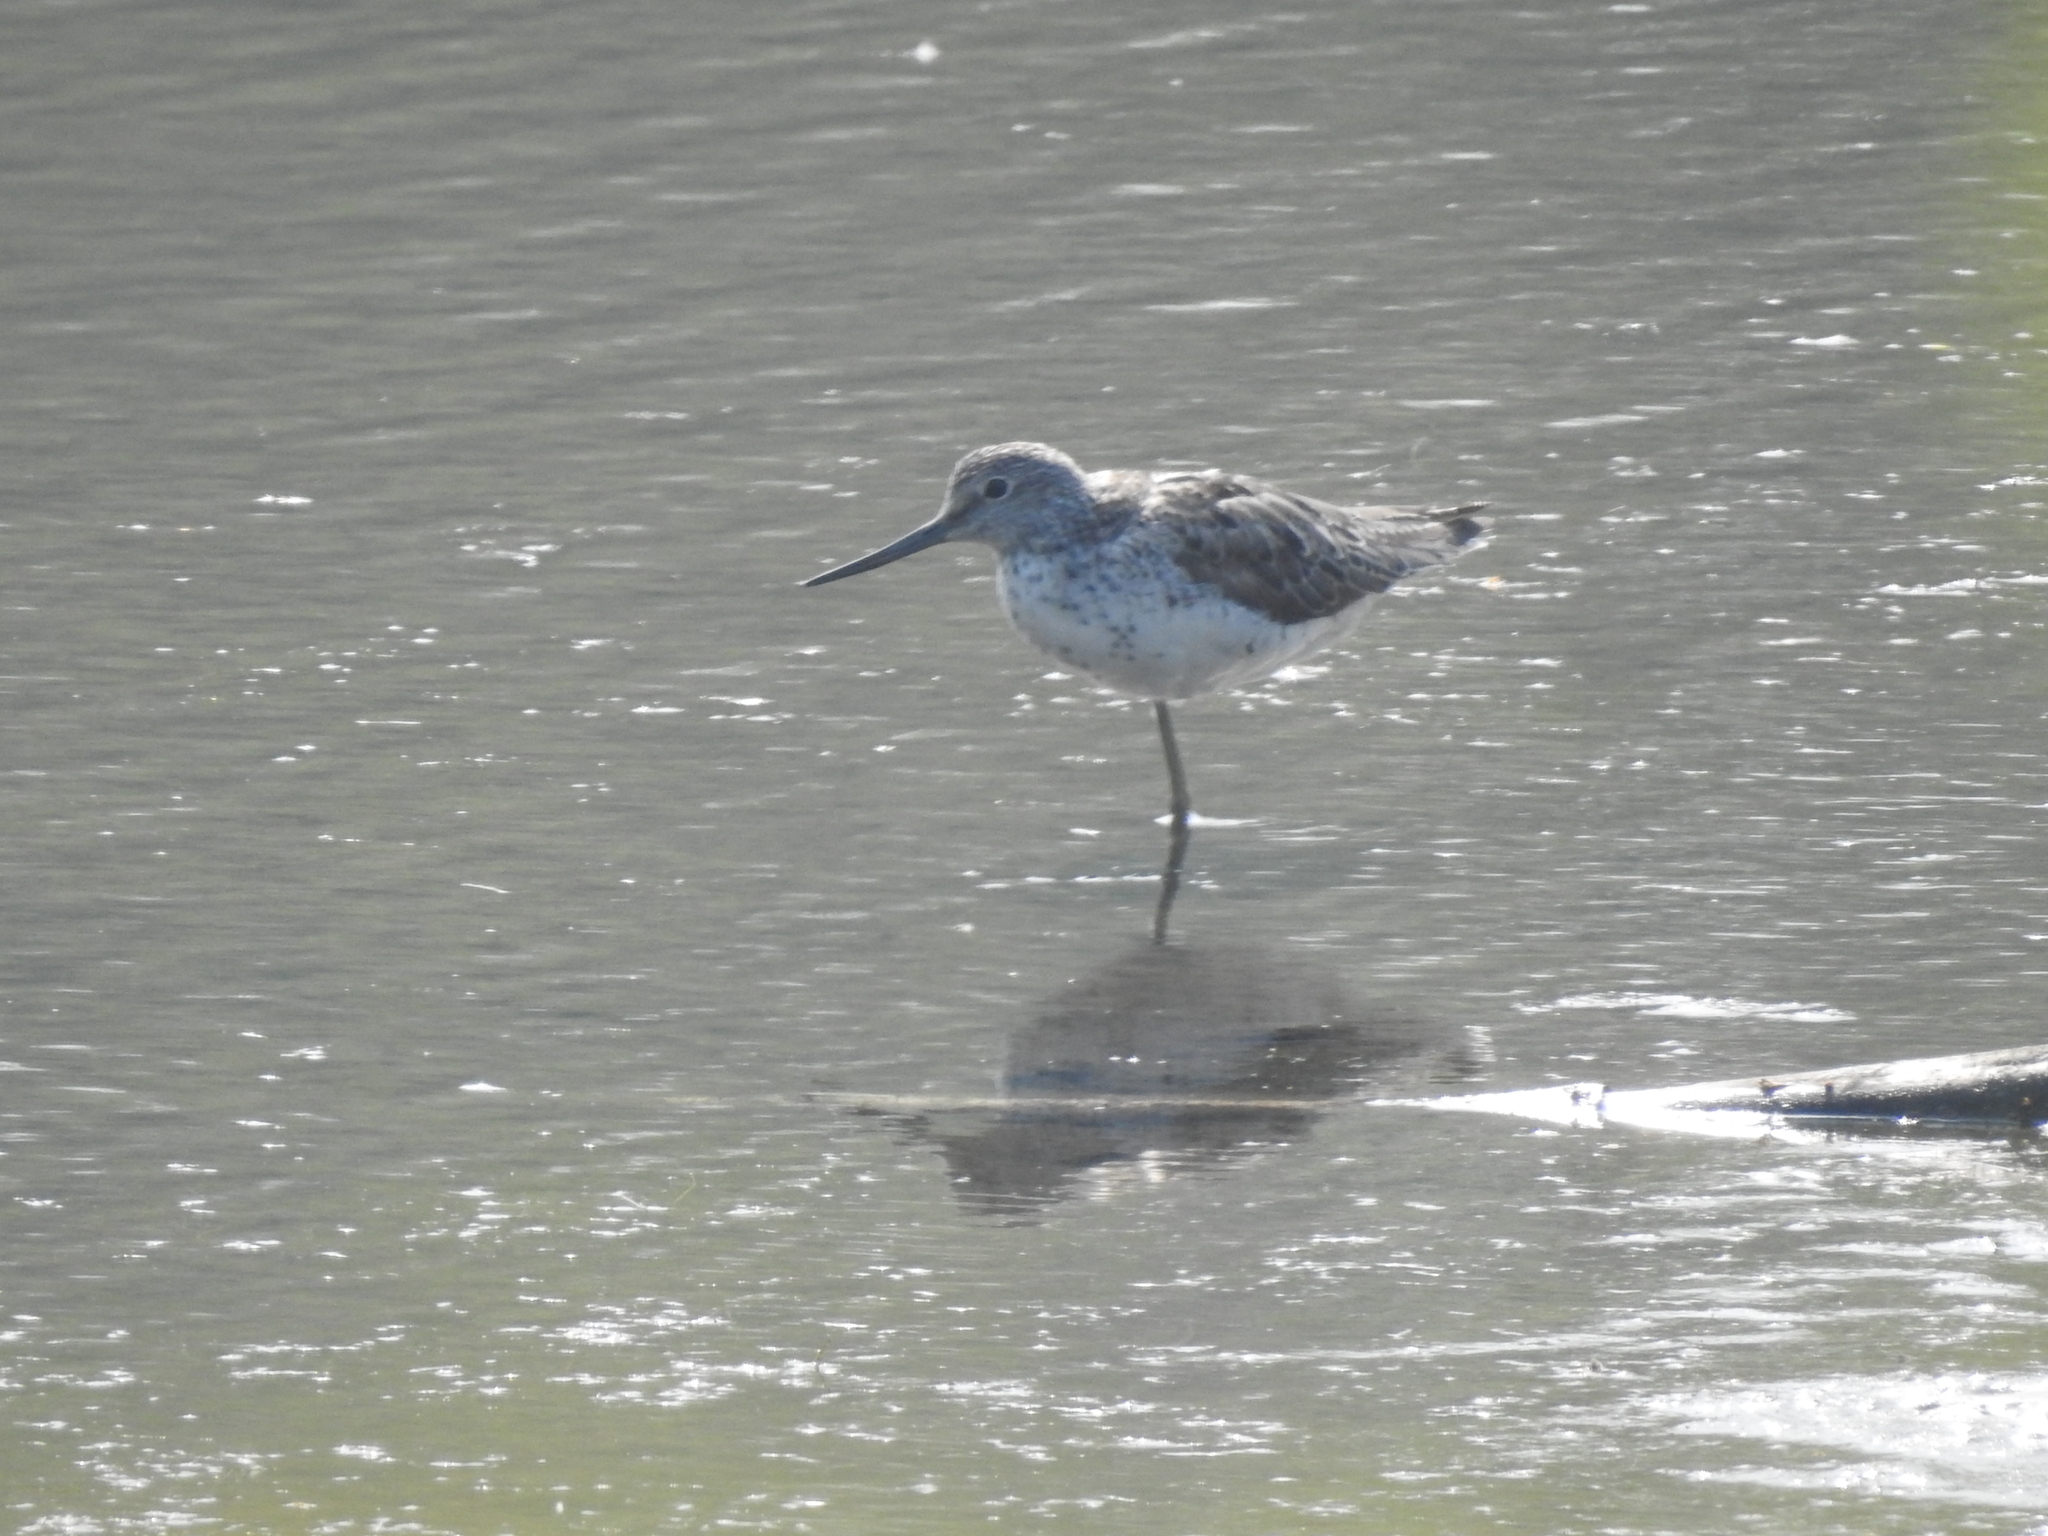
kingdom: Animalia
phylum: Chordata
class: Aves
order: Charadriiformes
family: Scolopacidae
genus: Tringa
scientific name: Tringa nebularia
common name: Common greenshank
